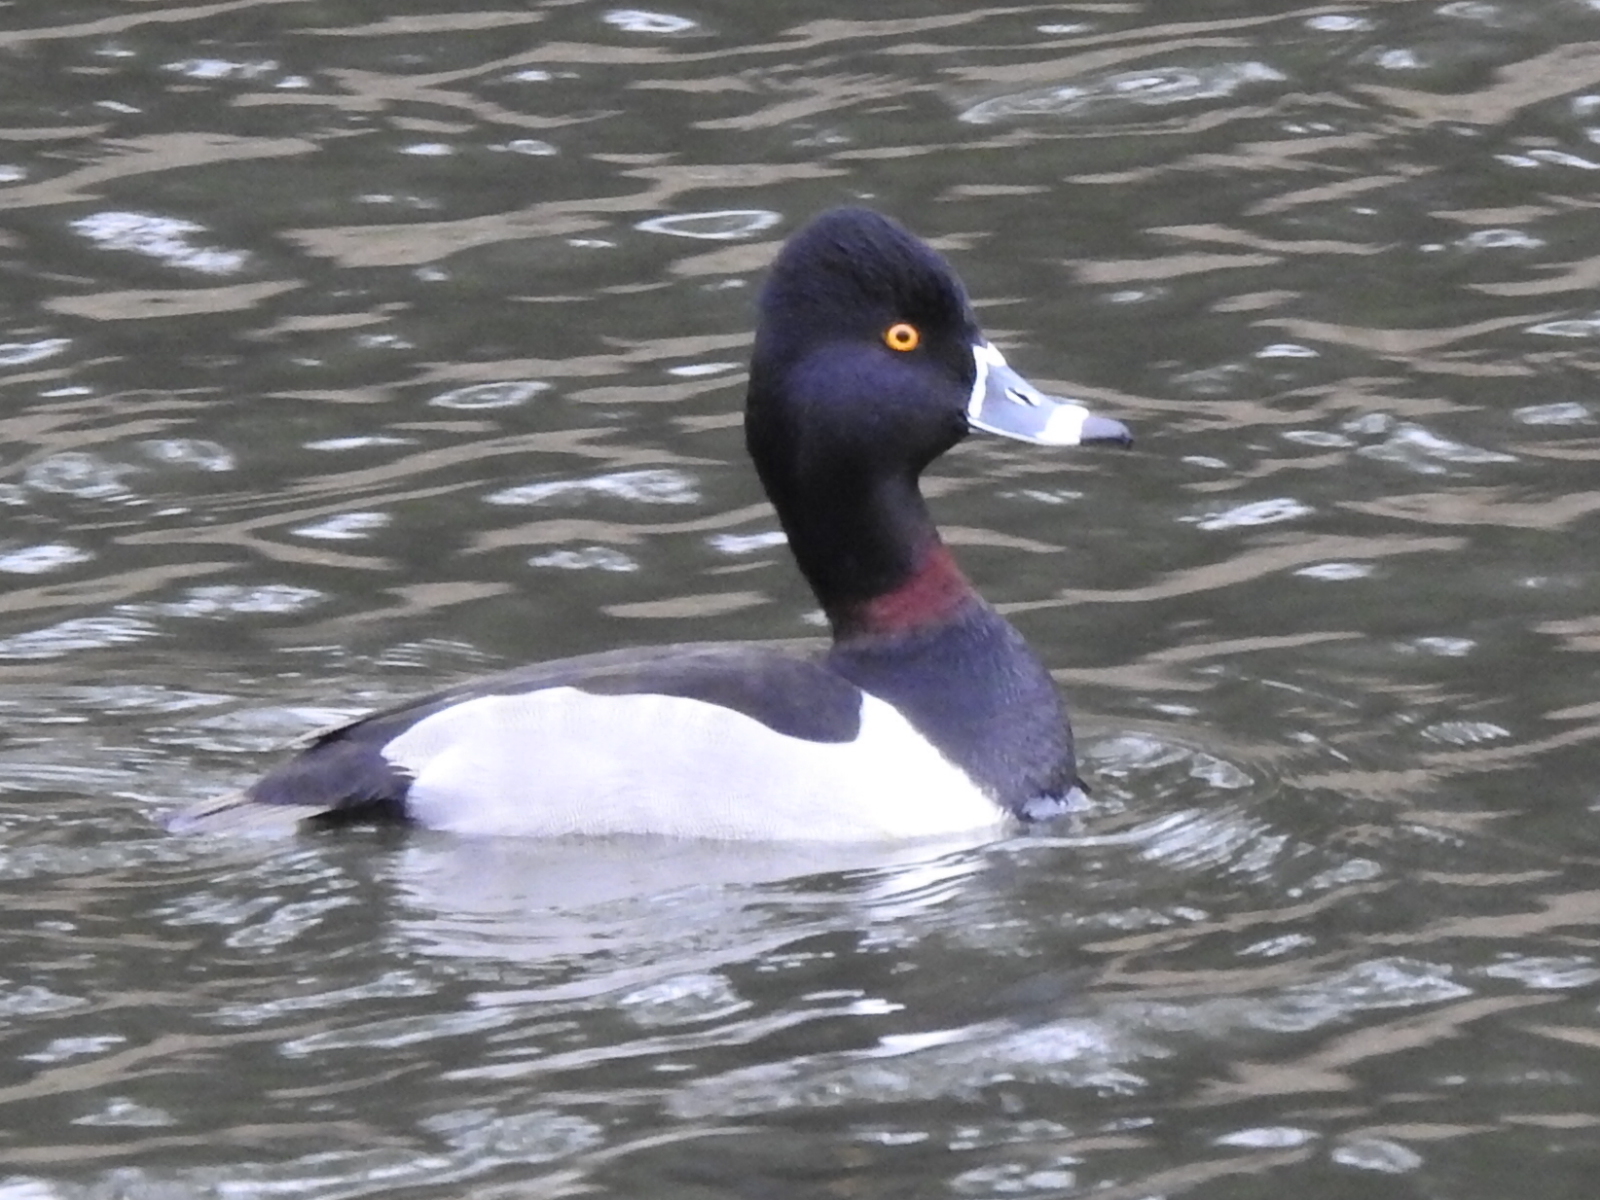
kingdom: Animalia
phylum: Chordata
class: Aves
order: Anseriformes
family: Anatidae
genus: Aythya
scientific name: Aythya collaris
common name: Ring-necked duck
